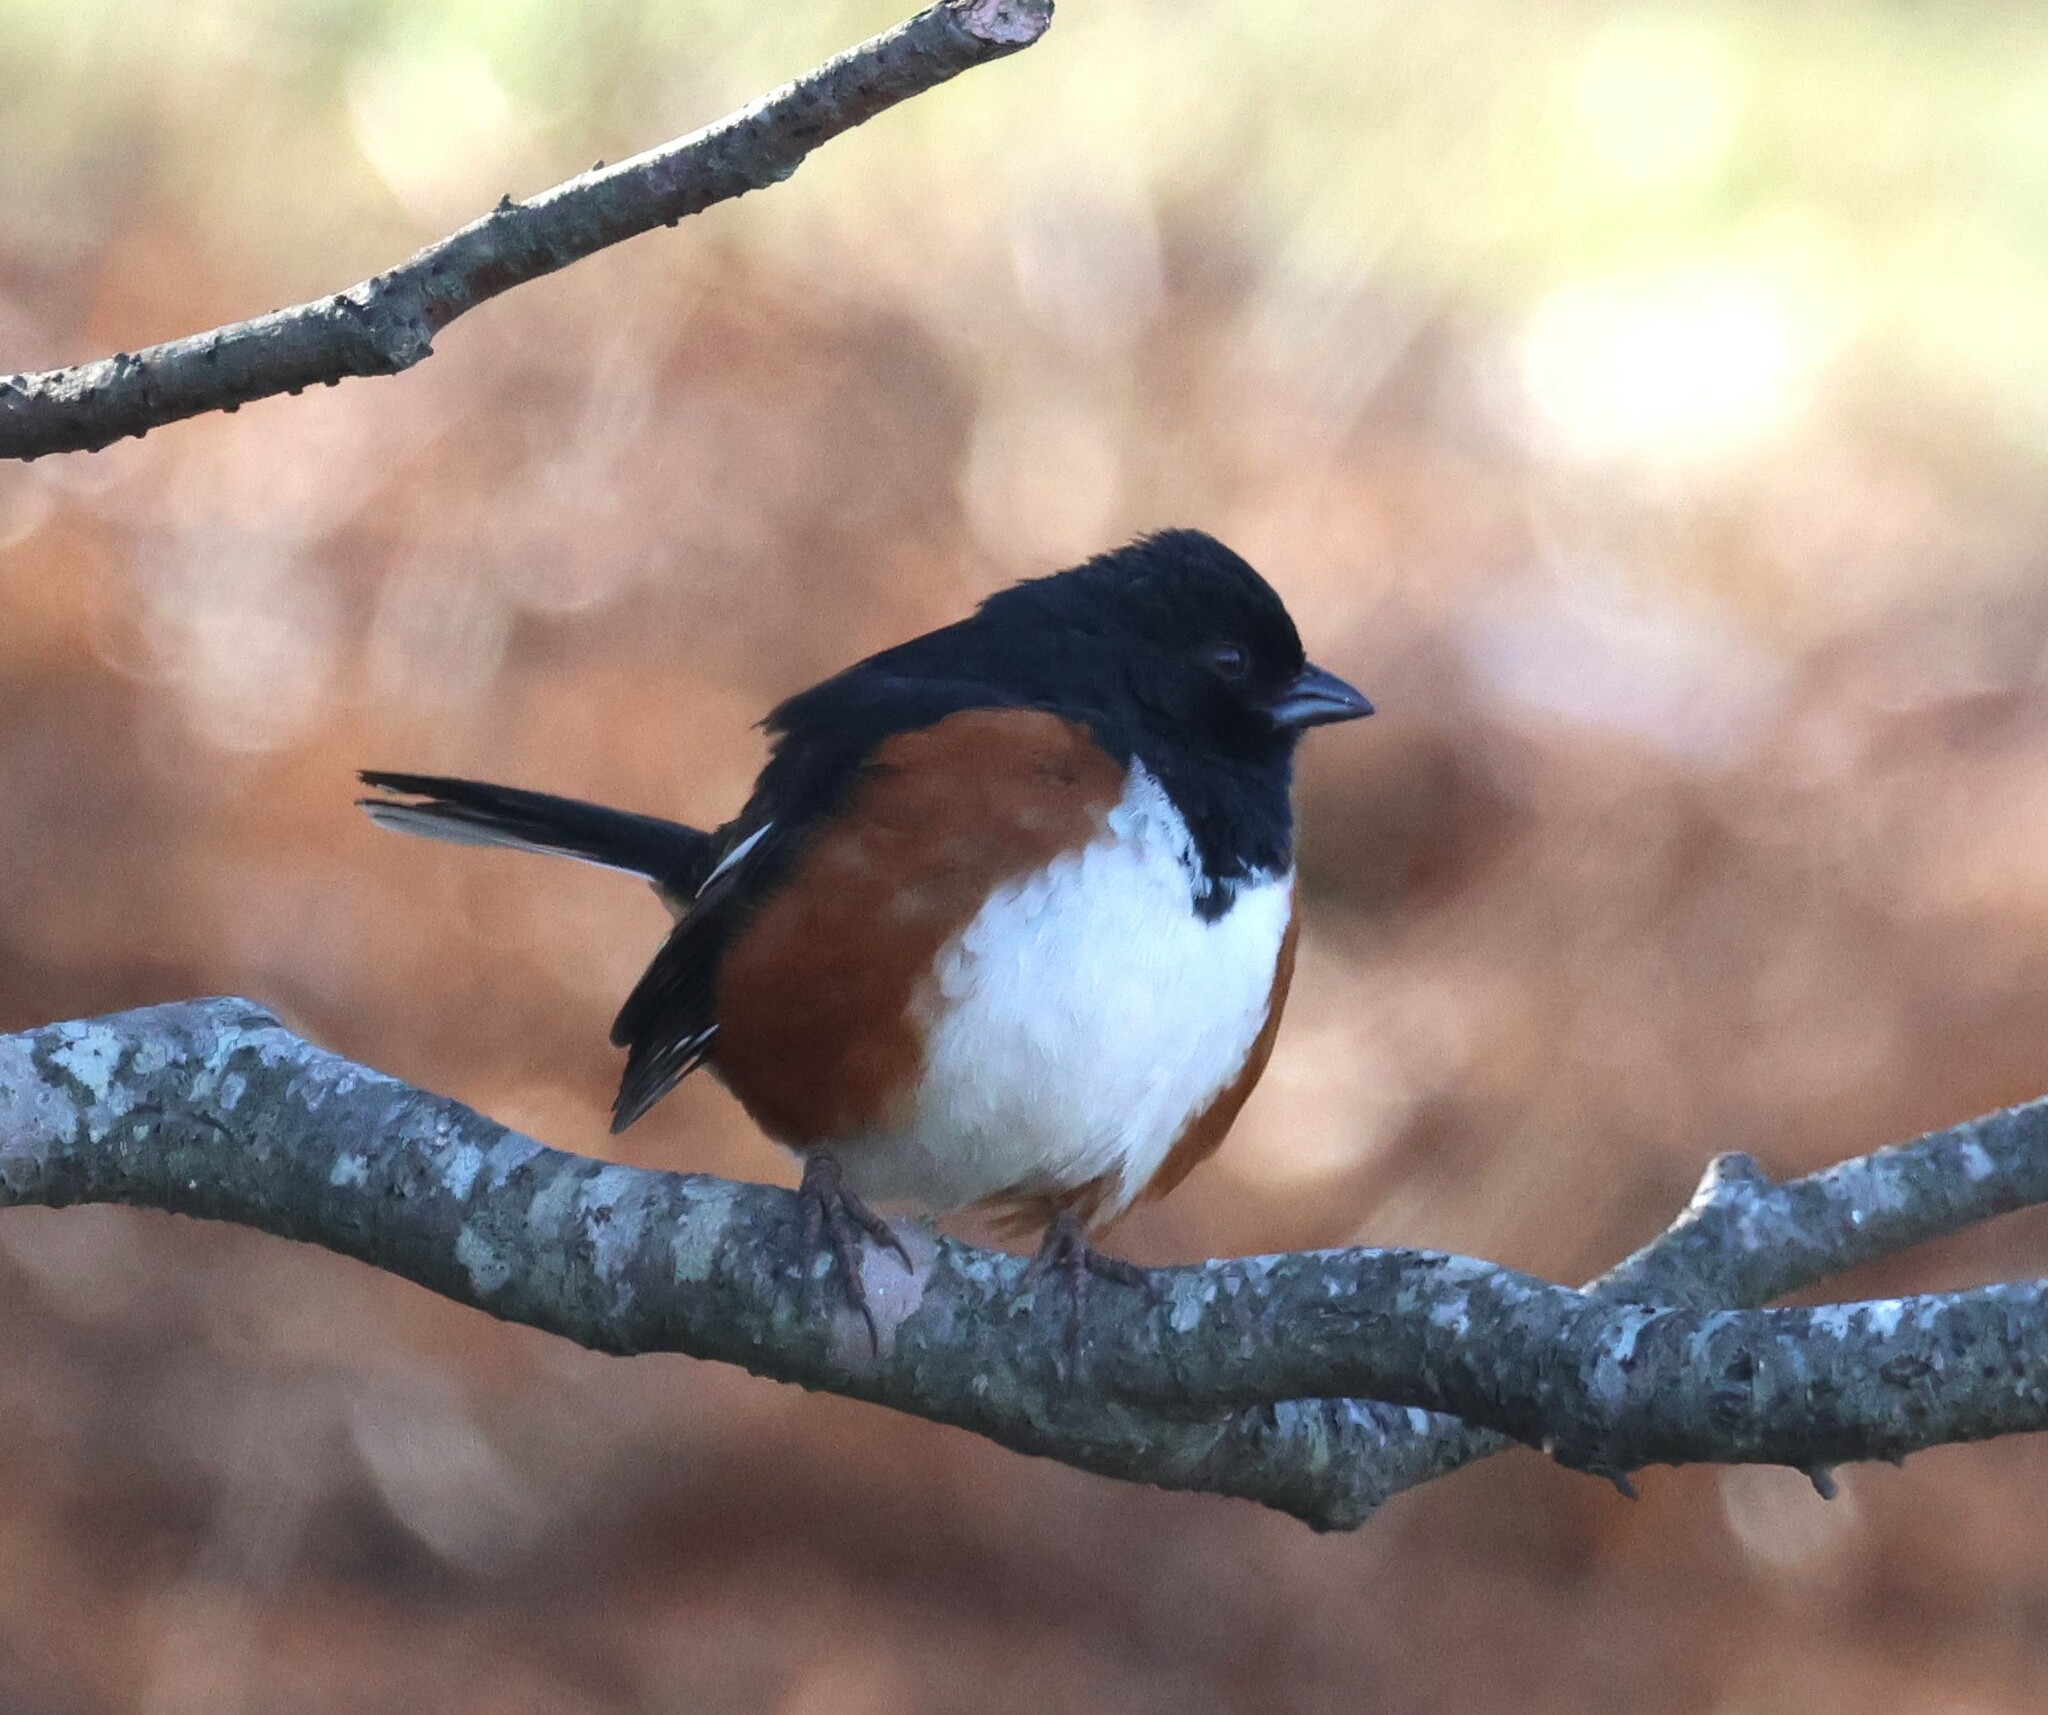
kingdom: Animalia
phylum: Chordata
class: Aves
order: Passeriformes
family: Passerellidae
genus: Pipilo
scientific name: Pipilo erythrophthalmus
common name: Eastern towhee
